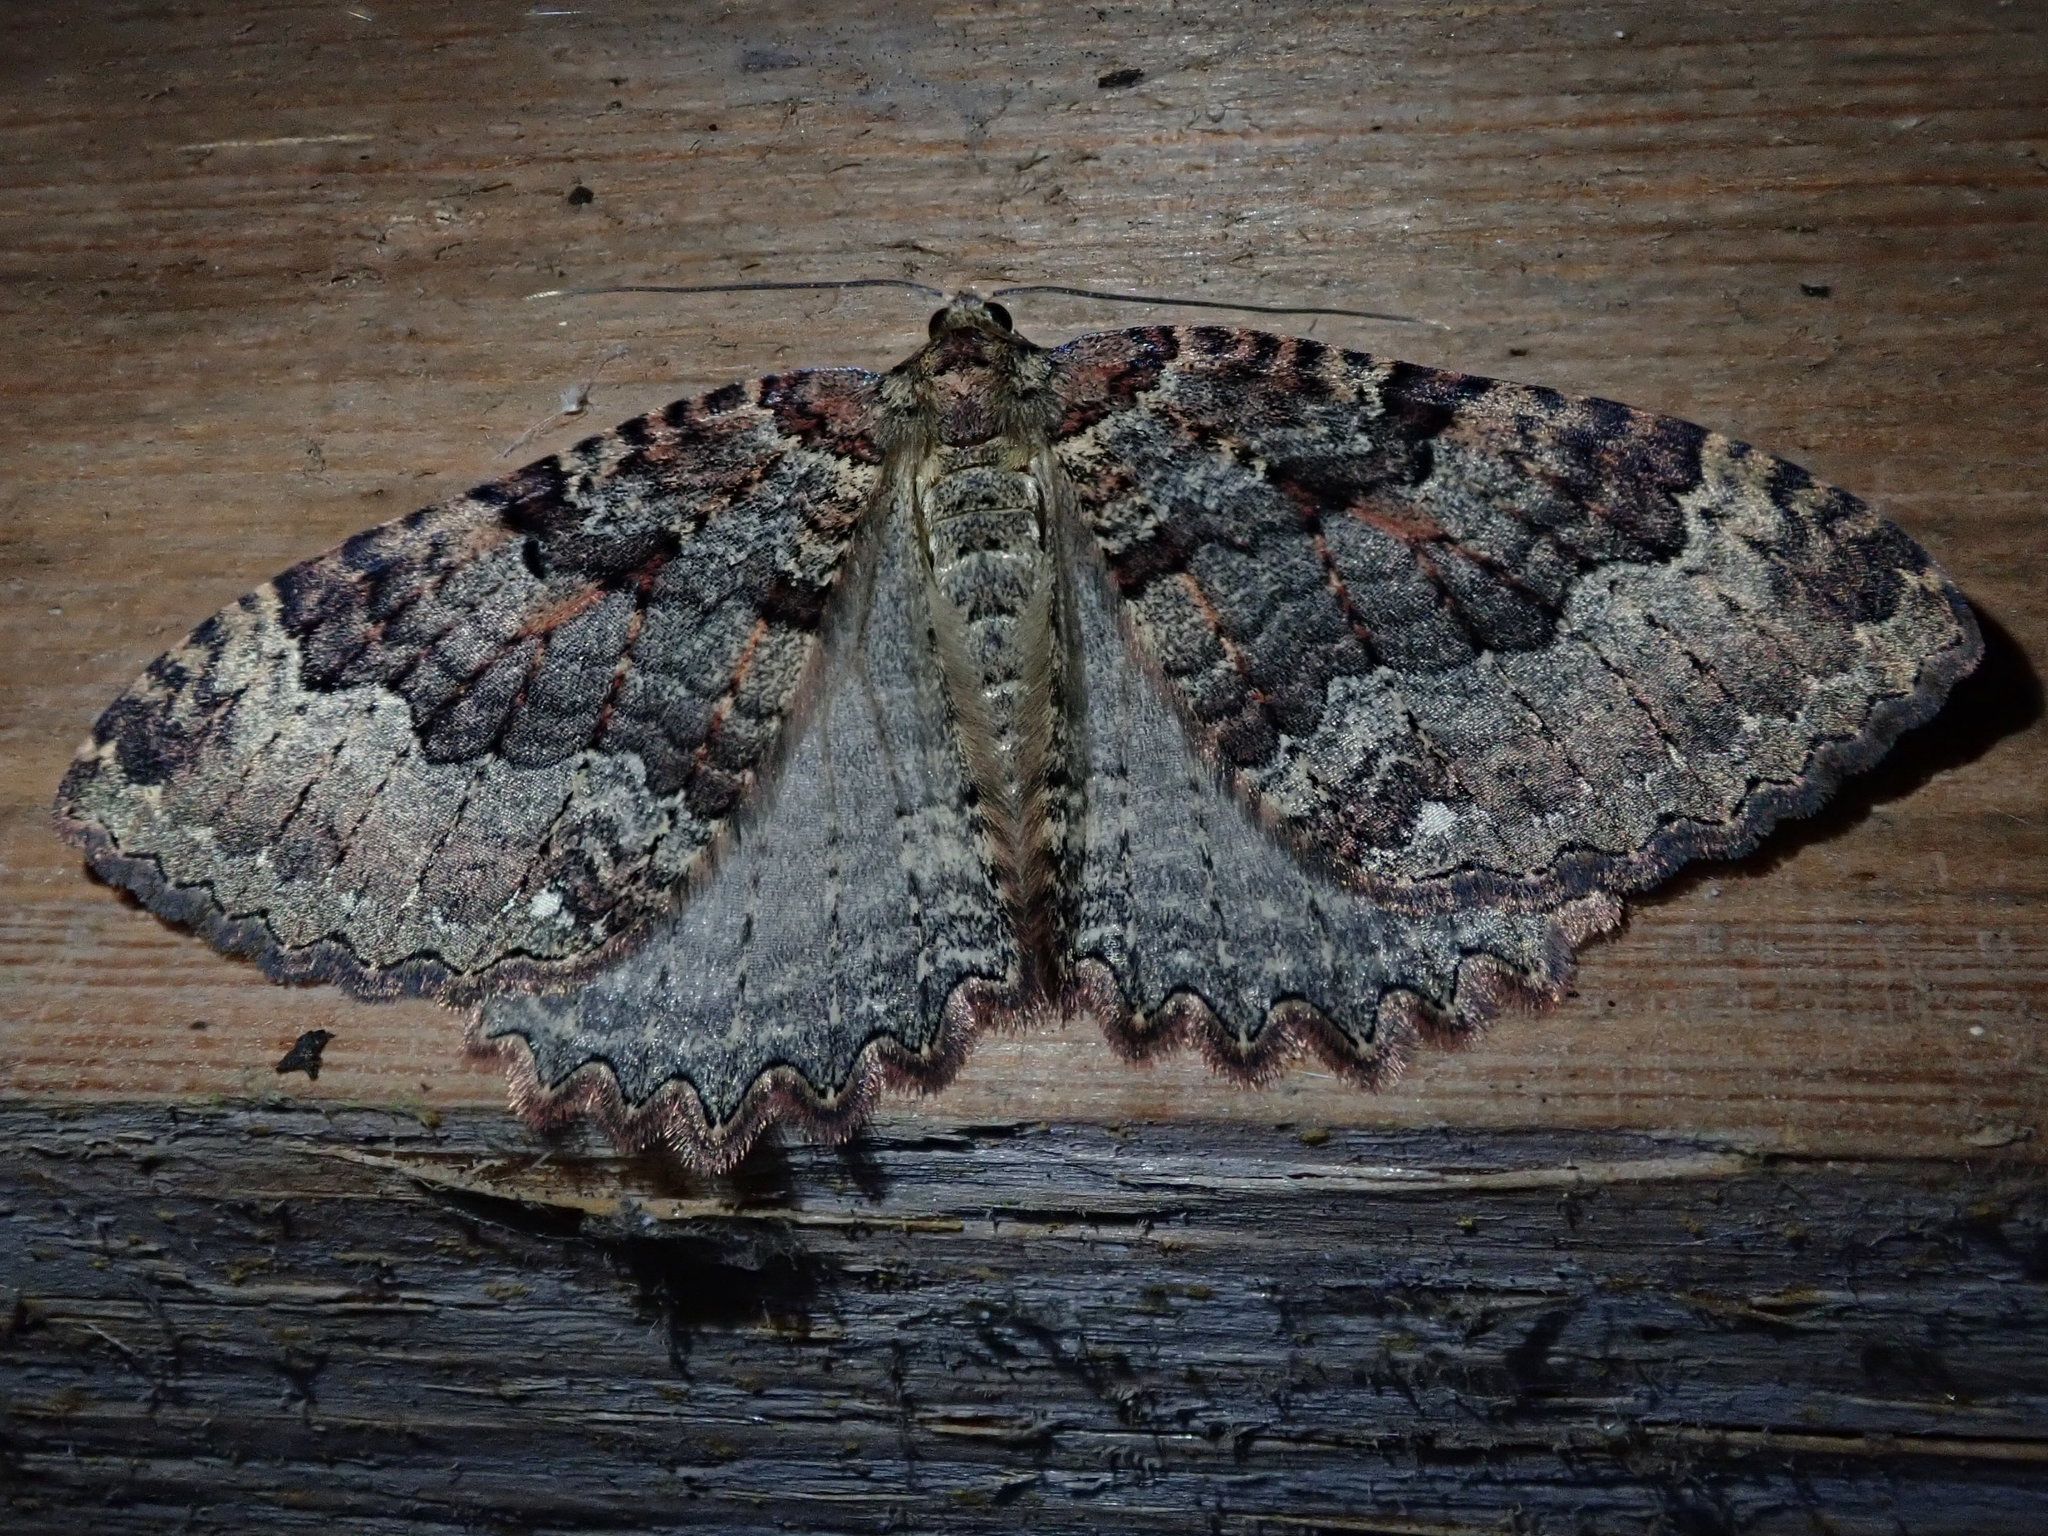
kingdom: Animalia
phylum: Arthropoda
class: Insecta
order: Lepidoptera
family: Geometridae
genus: Triphosa
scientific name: Triphosa dubitata
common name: Tissue
